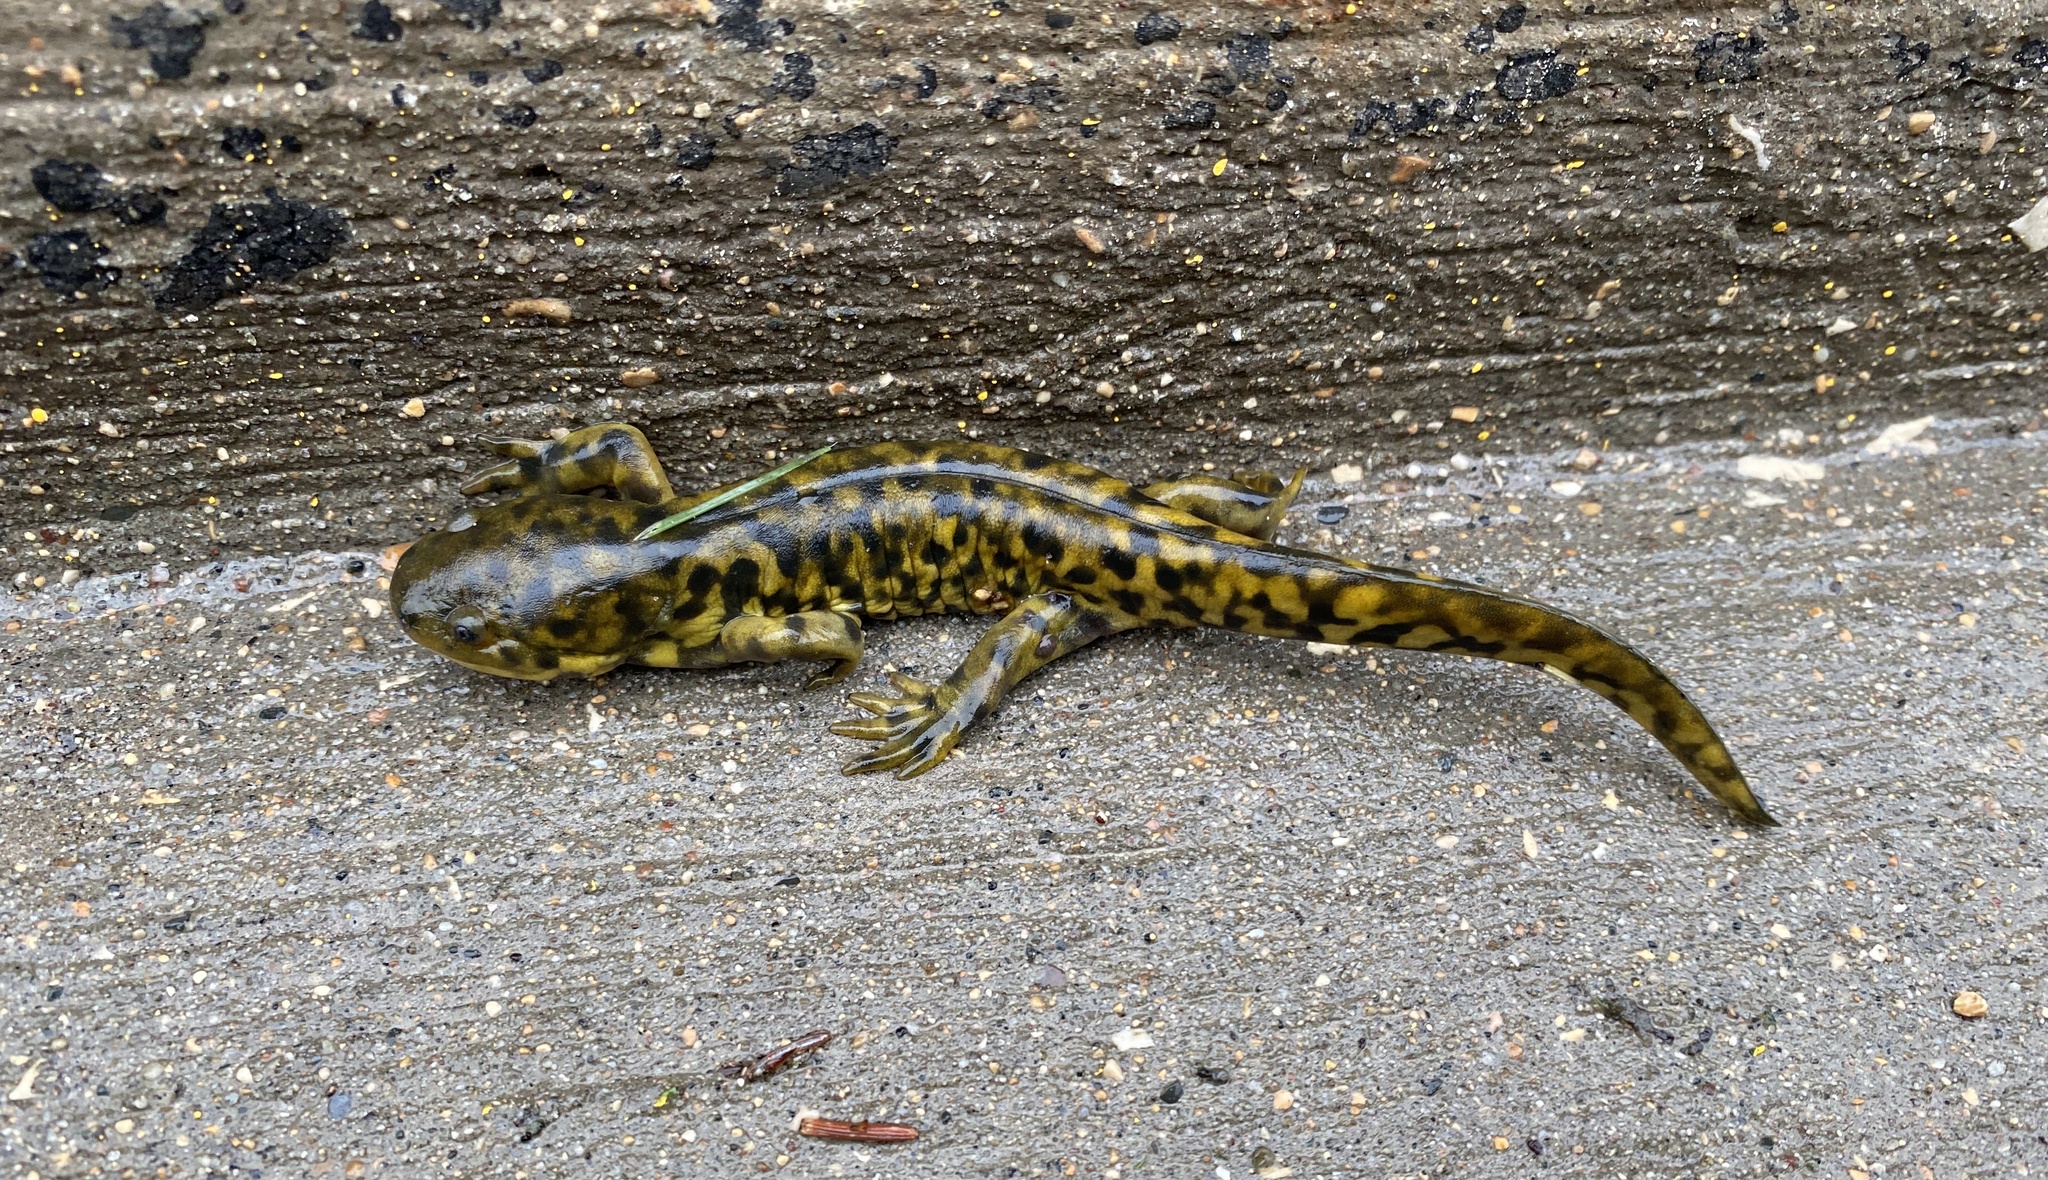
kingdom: Animalia
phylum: Chordata
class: Amphibia
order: Caudata
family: Ambystomatidae
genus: Ambystoma
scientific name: Ambystoma mavortium
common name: Western tiger salamander
